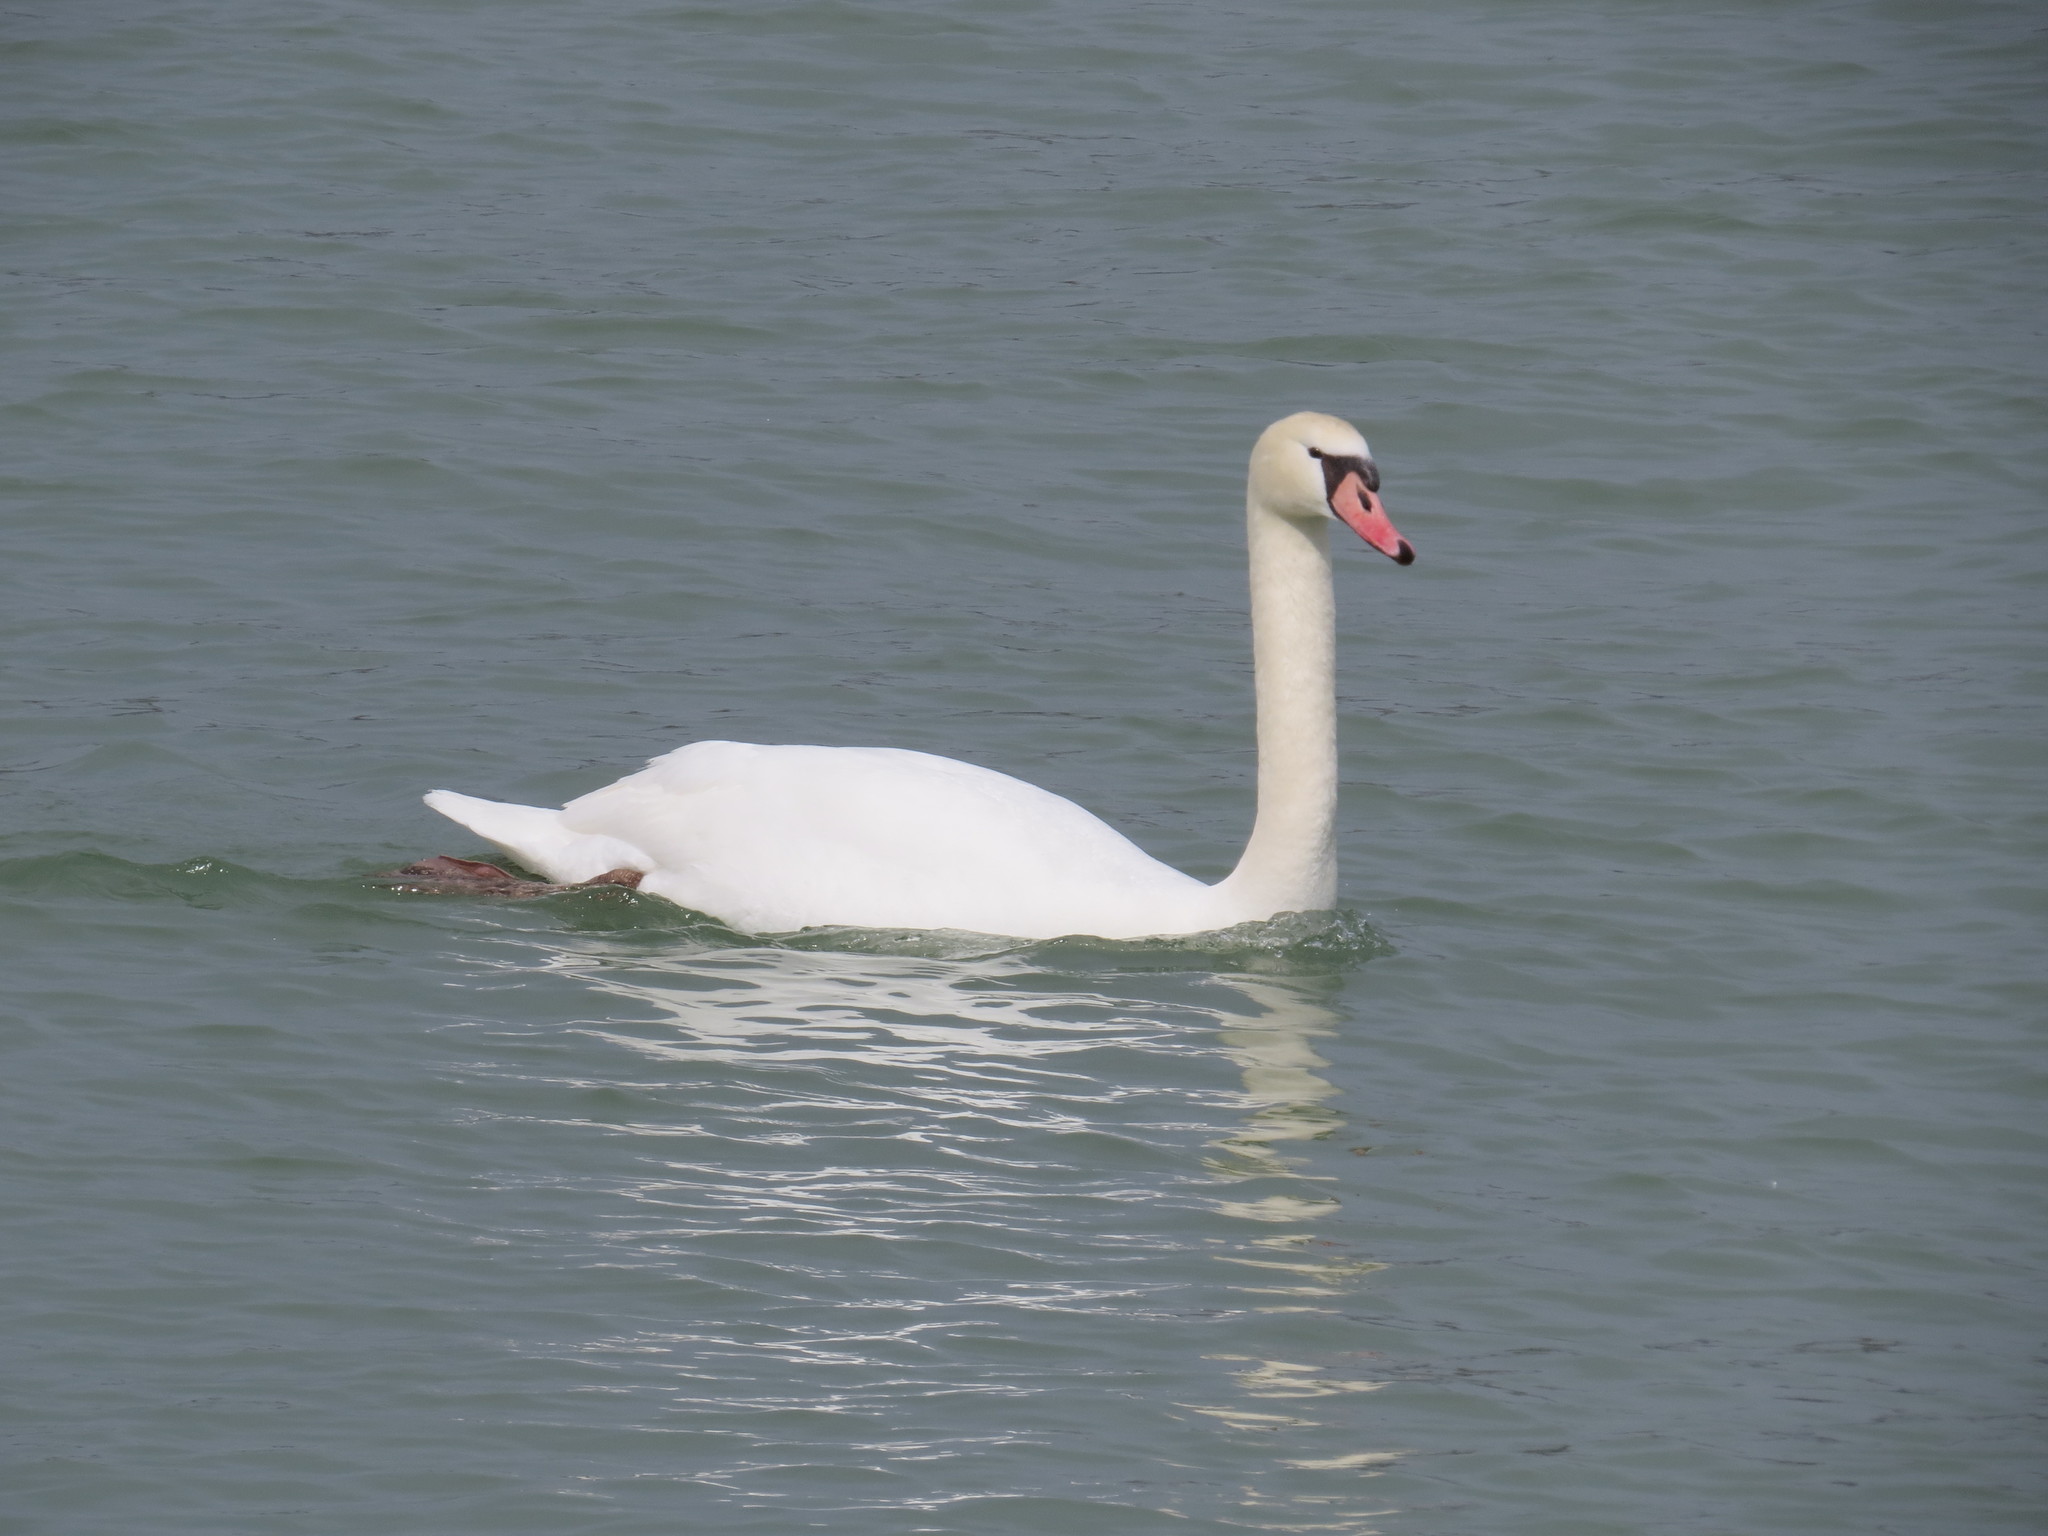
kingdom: Animalia
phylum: Chordata
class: Aves
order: Anseriformes
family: Anatidae
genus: Cygnus
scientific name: Cygnus olor
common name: Mute swan
